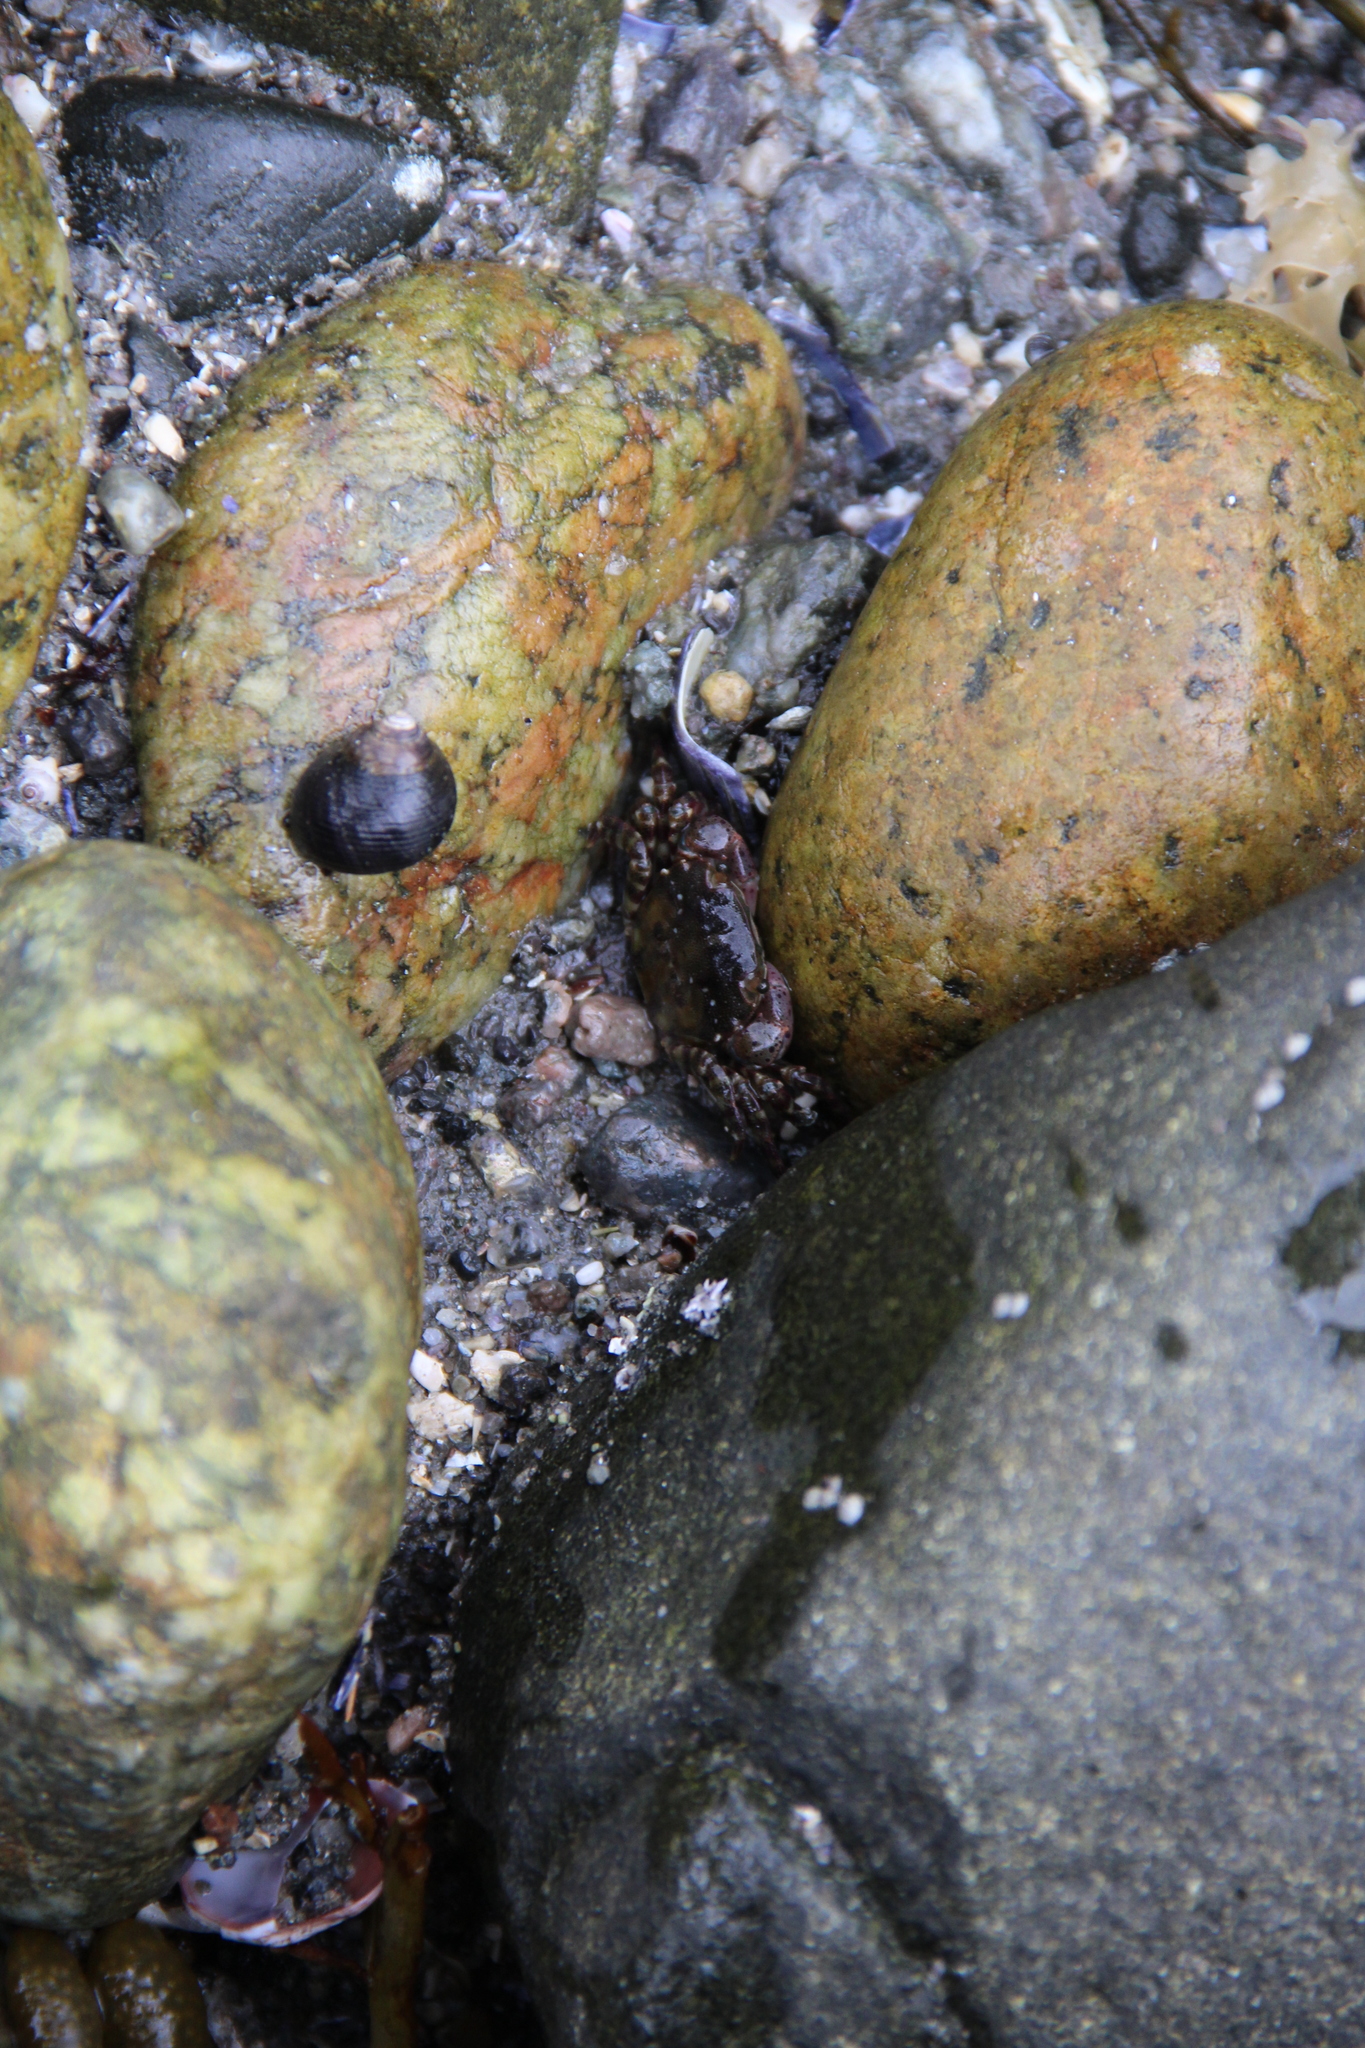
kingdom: Animalia
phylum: Arthropoda
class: Malacostraca
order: Decapoda
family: Varunidae
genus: Hemigrapsus
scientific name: Hemigrapsus sanguineus
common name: Asian shore crab
